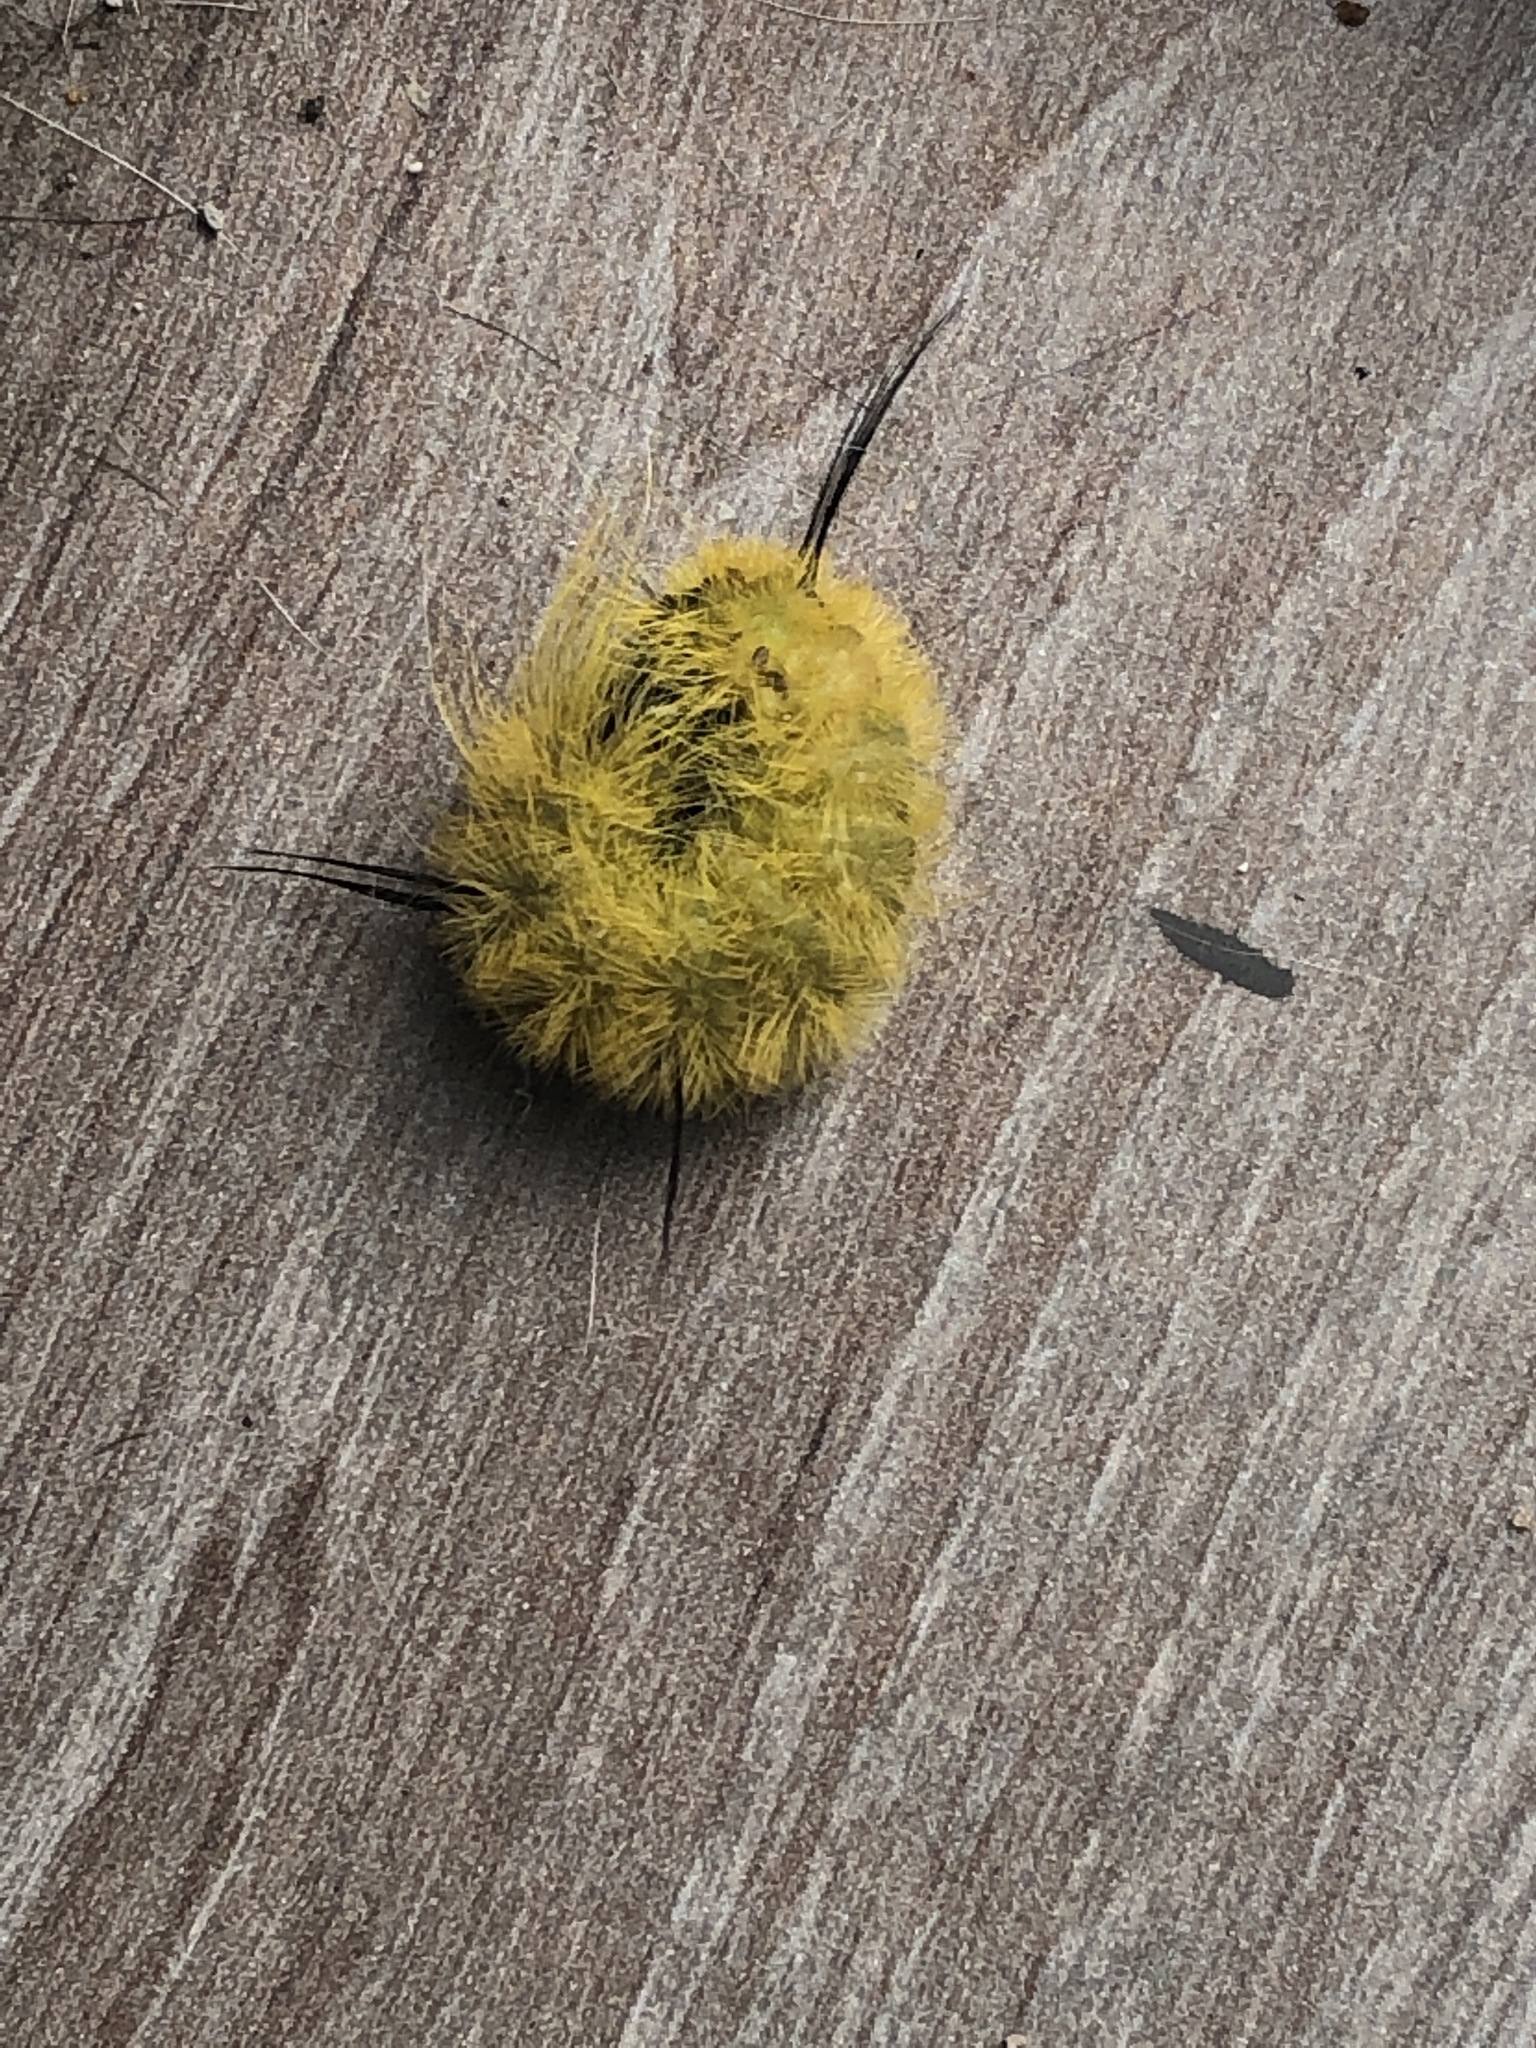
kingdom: Animalia
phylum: Arthropoda
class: Insecta
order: Lepidoptera
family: Noctuidae
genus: Acronicta
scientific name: Acronicta americana
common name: American dagger
